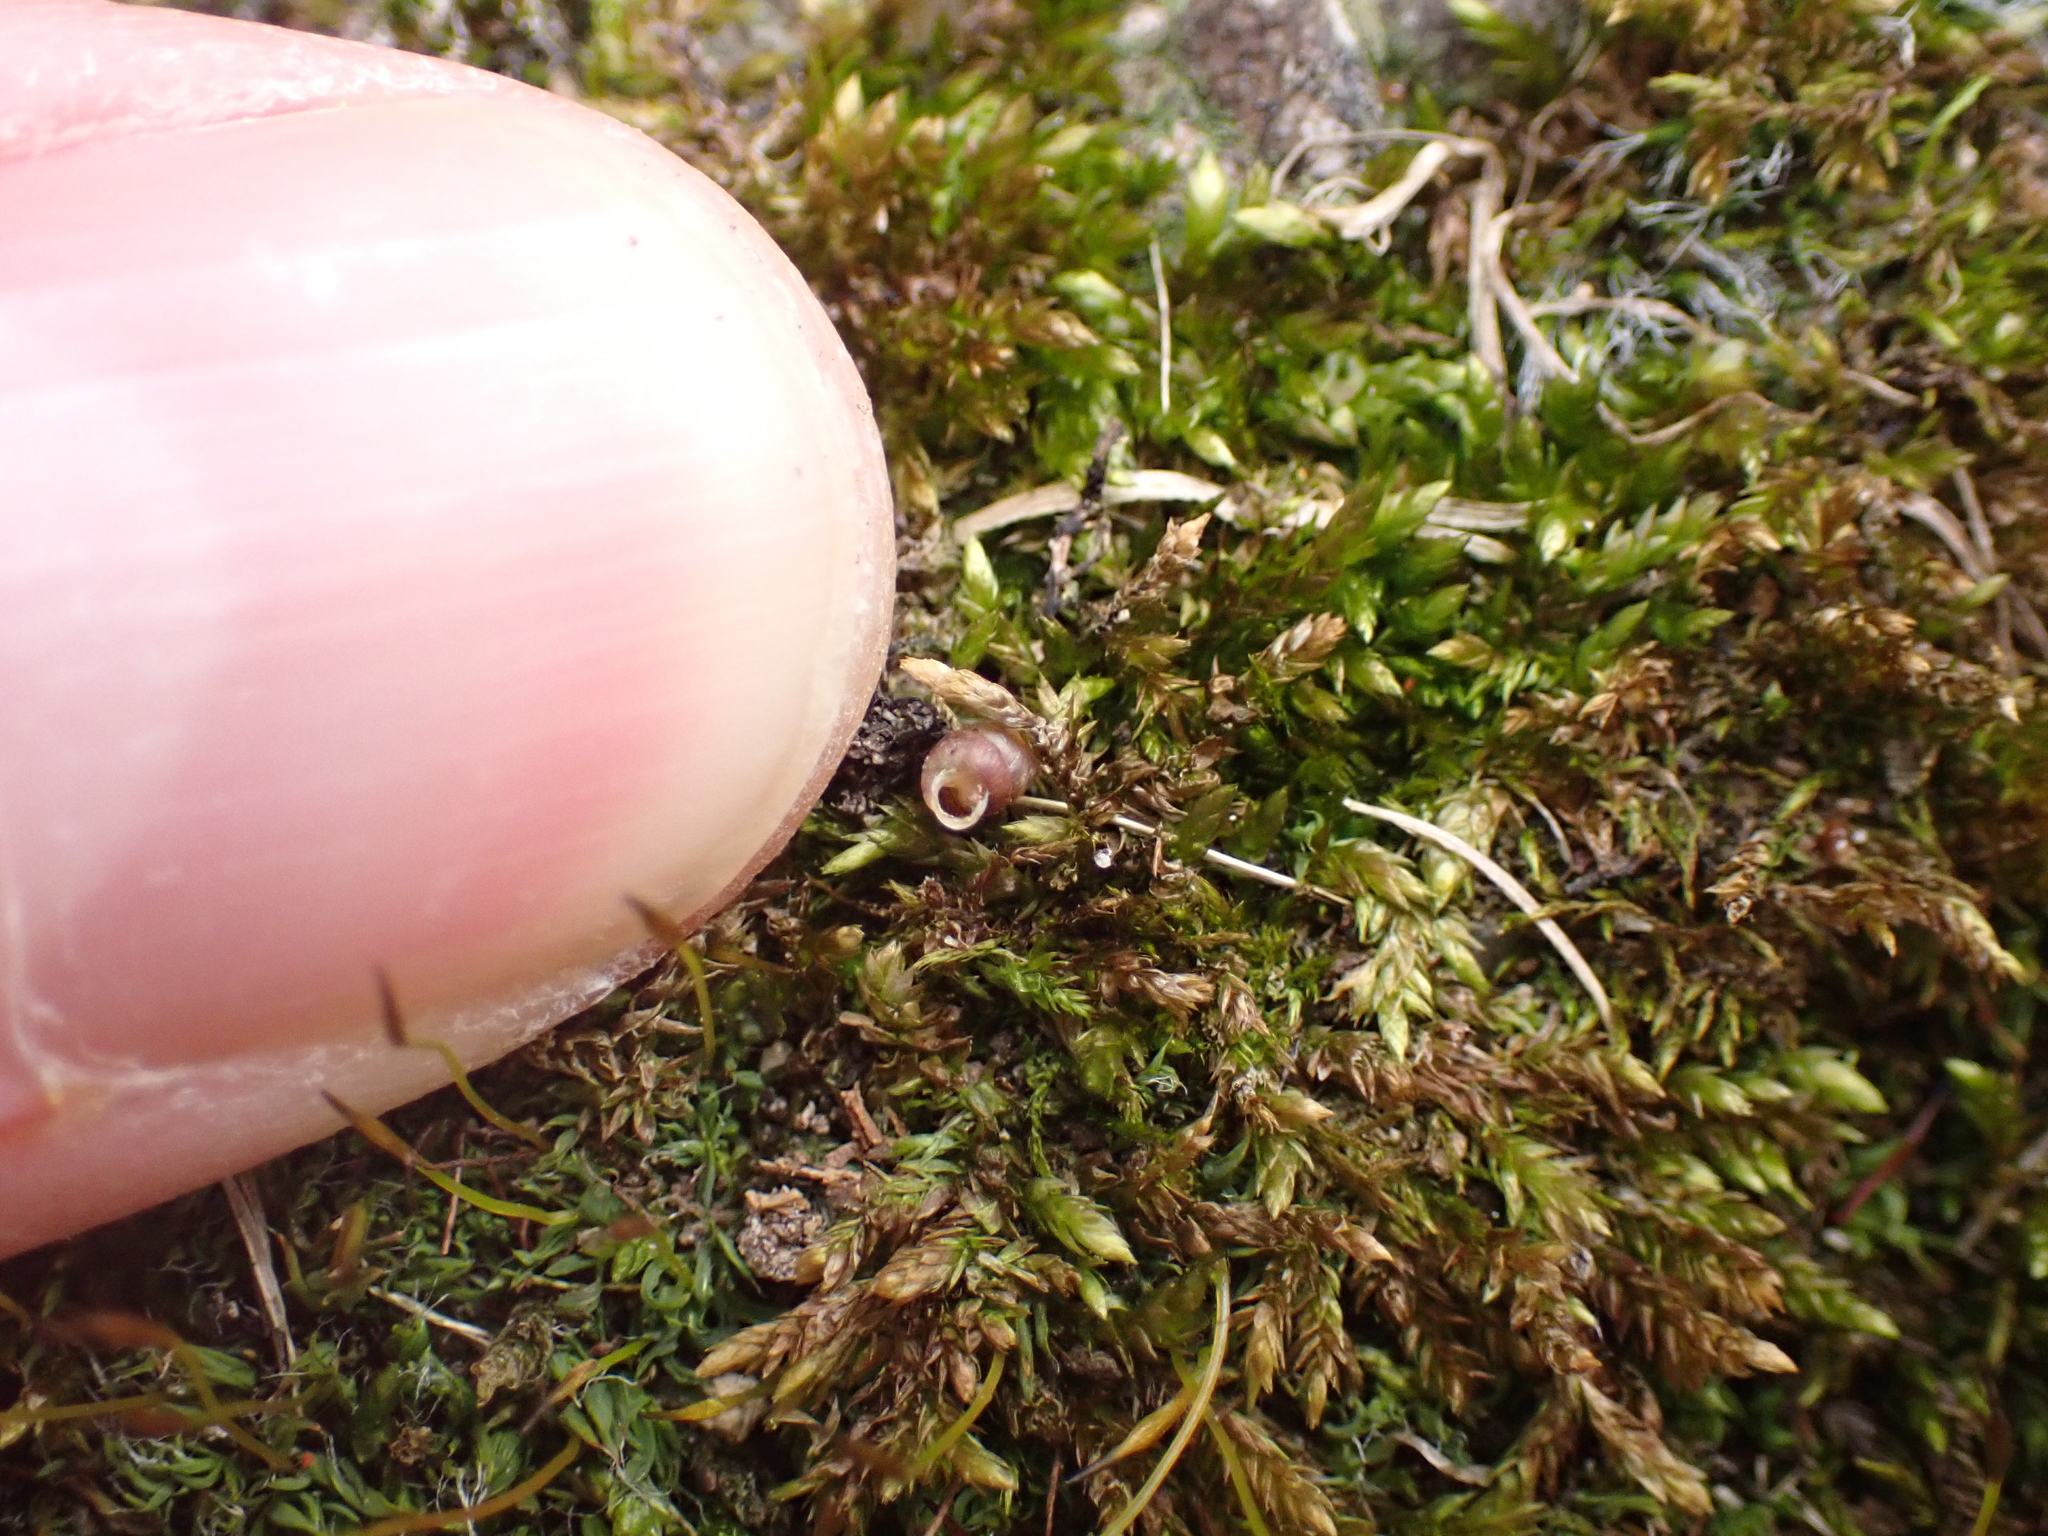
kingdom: Animalia
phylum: Mollusca
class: Gastropoda
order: Stylommatophora
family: Pupillidae
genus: Pupilla
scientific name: Pupilla muscorum
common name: Moss chrysalis snail
